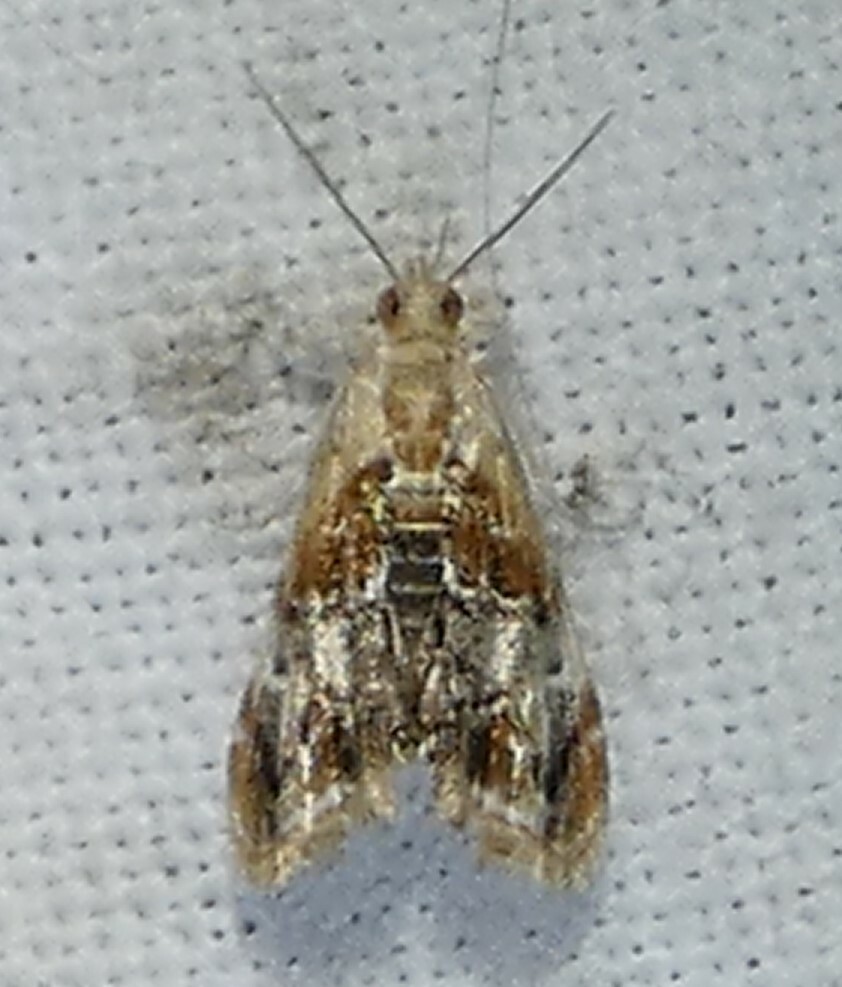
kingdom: Animalia
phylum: Arthropoda
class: Insecta
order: Lepidoptera
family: Crambidae
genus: Dicymolomia
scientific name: Dicymolomia julianalis
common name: Julia's dicymolomia moth
